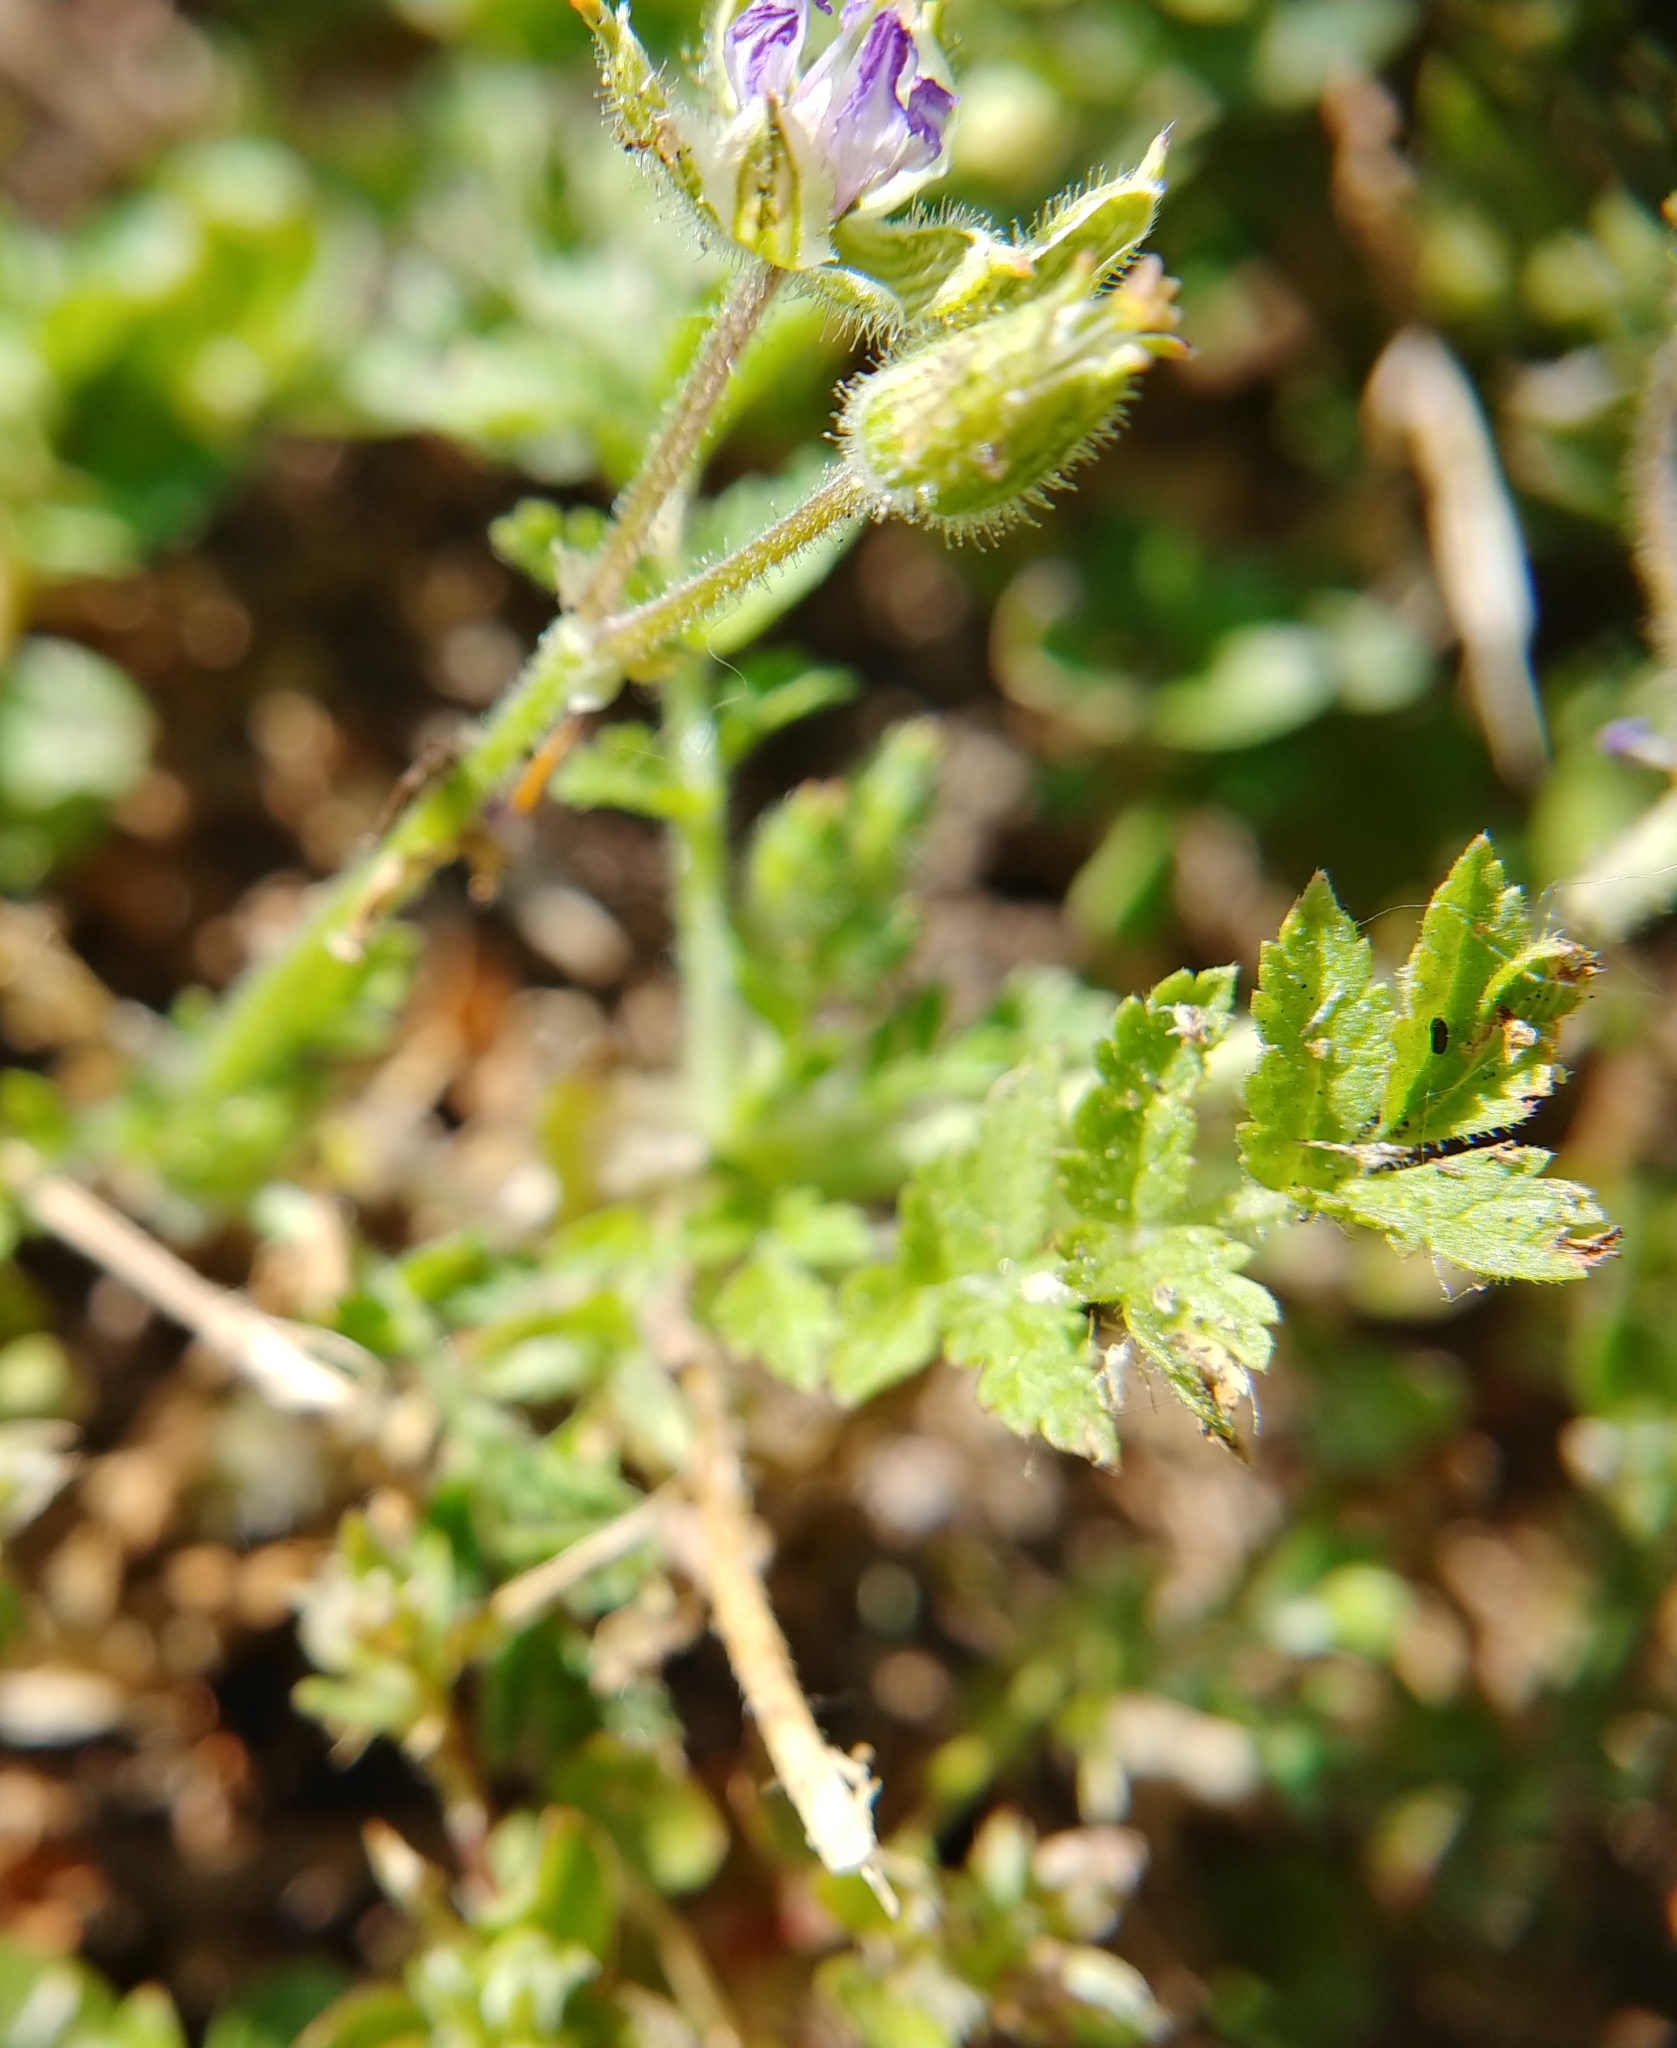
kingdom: Plantae
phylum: Tracheophyta
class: Magnoliopsida
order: Geraniales
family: Geraniaceae
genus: Erodium
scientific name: Erodium moschatum
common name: Musk stork's-bill
